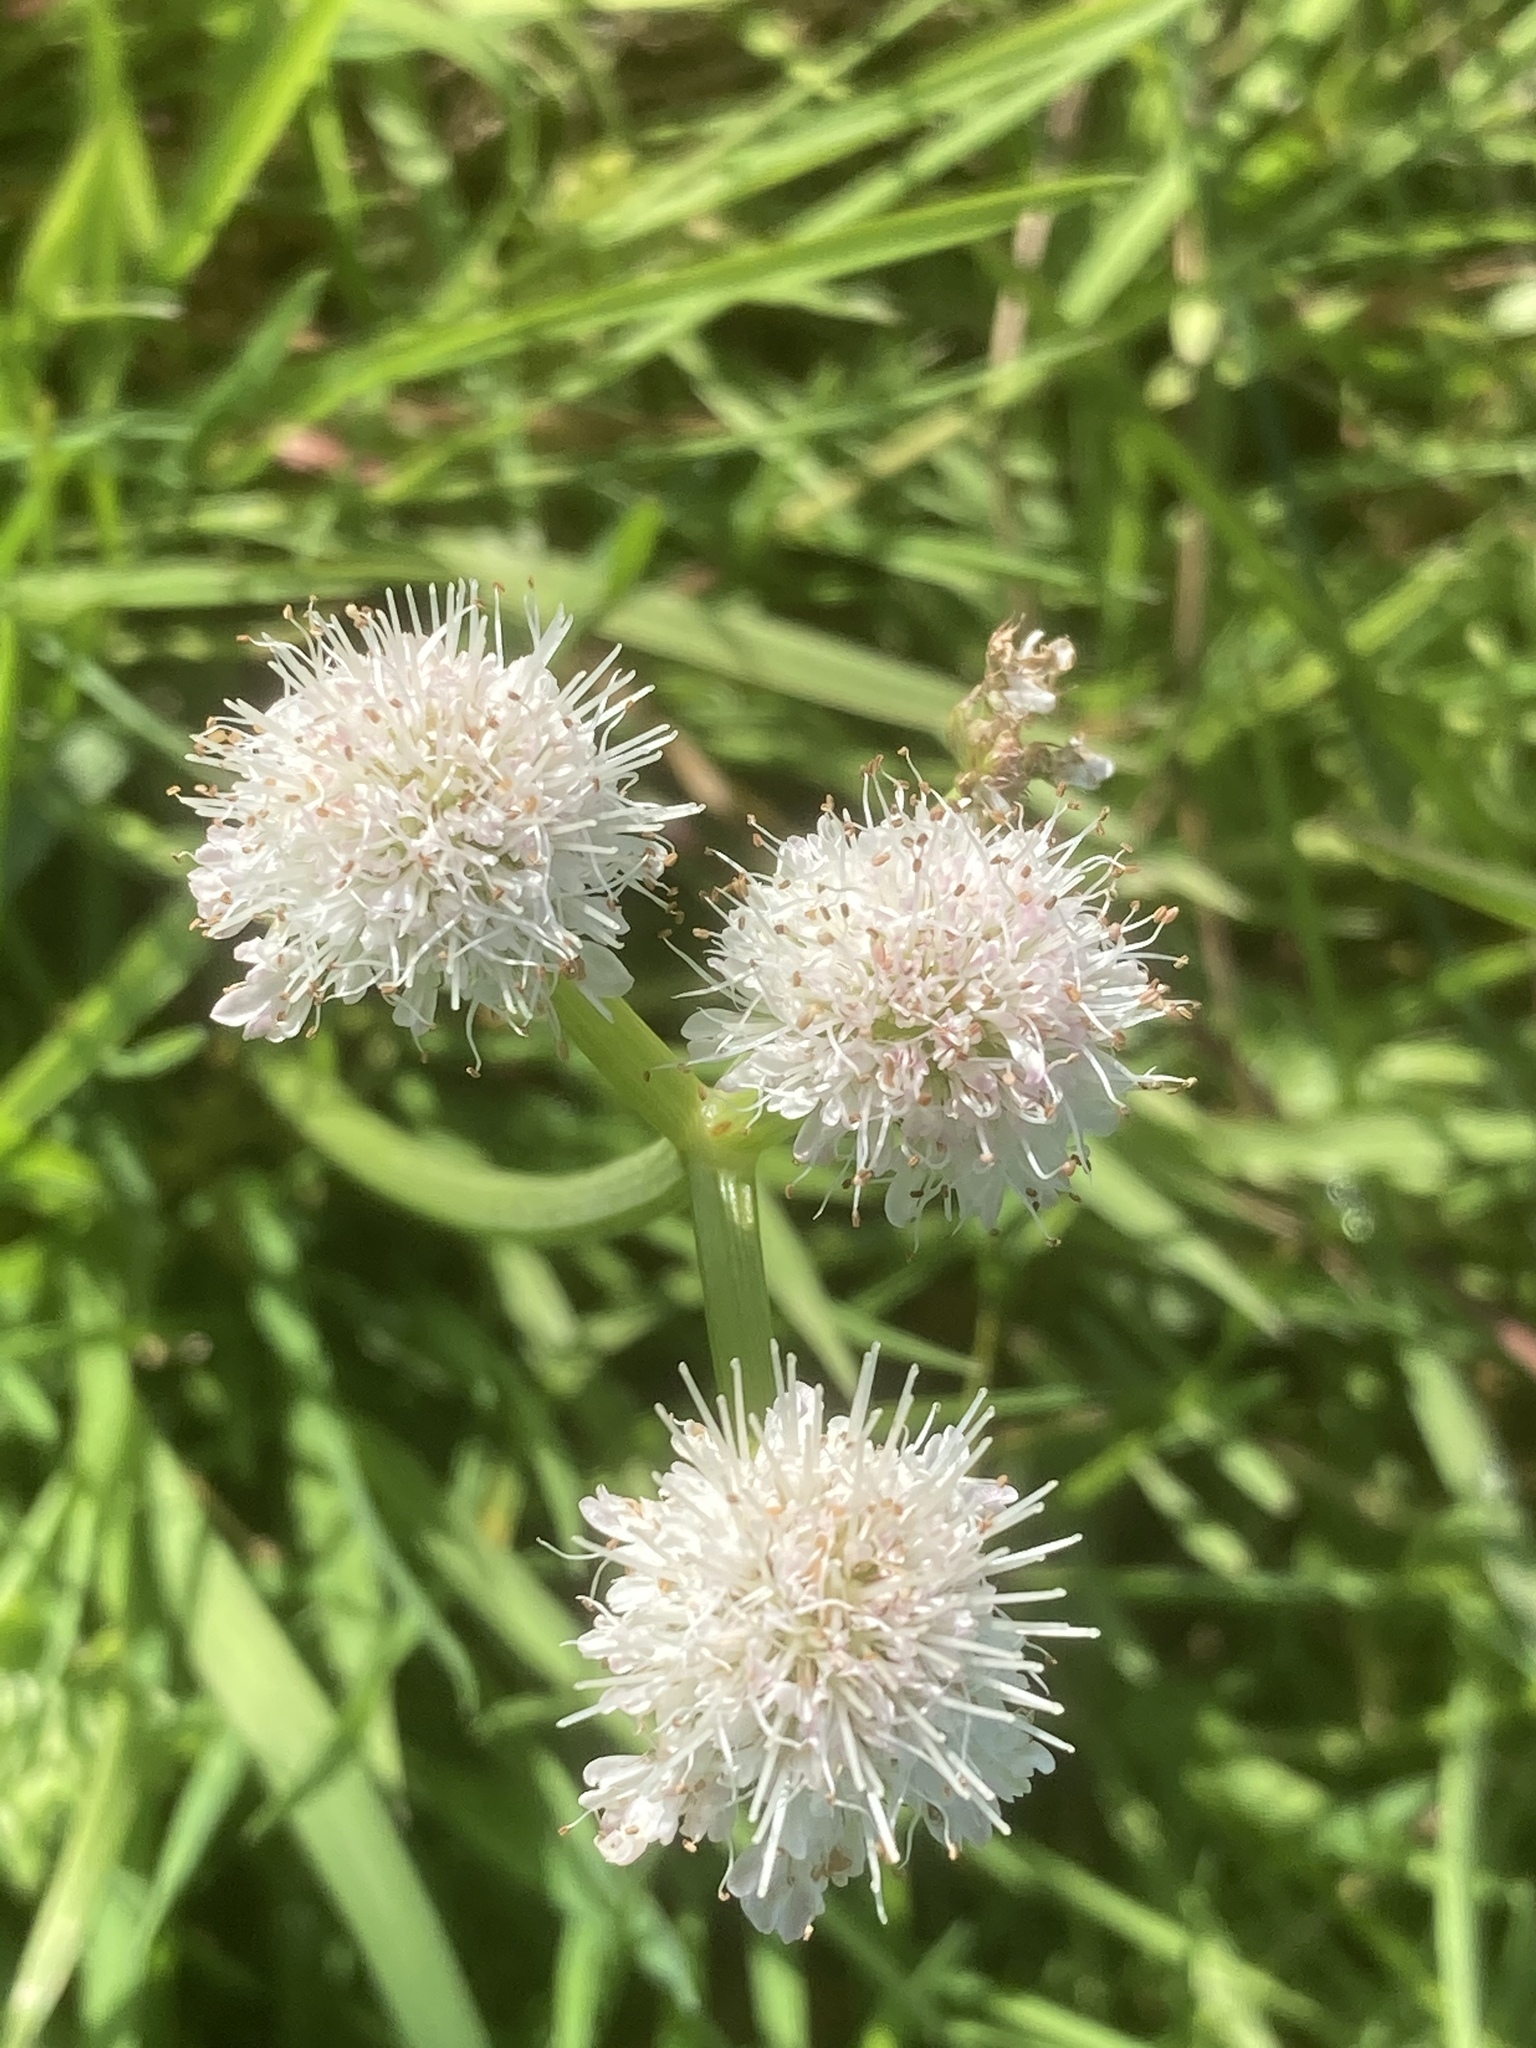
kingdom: Plantae
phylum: Tracheophyta
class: Magnoliopsida
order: Apiales
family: Apiaceae
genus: Oenanthe
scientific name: Oenanthe fistulosa
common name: Tubular water-dropwort
